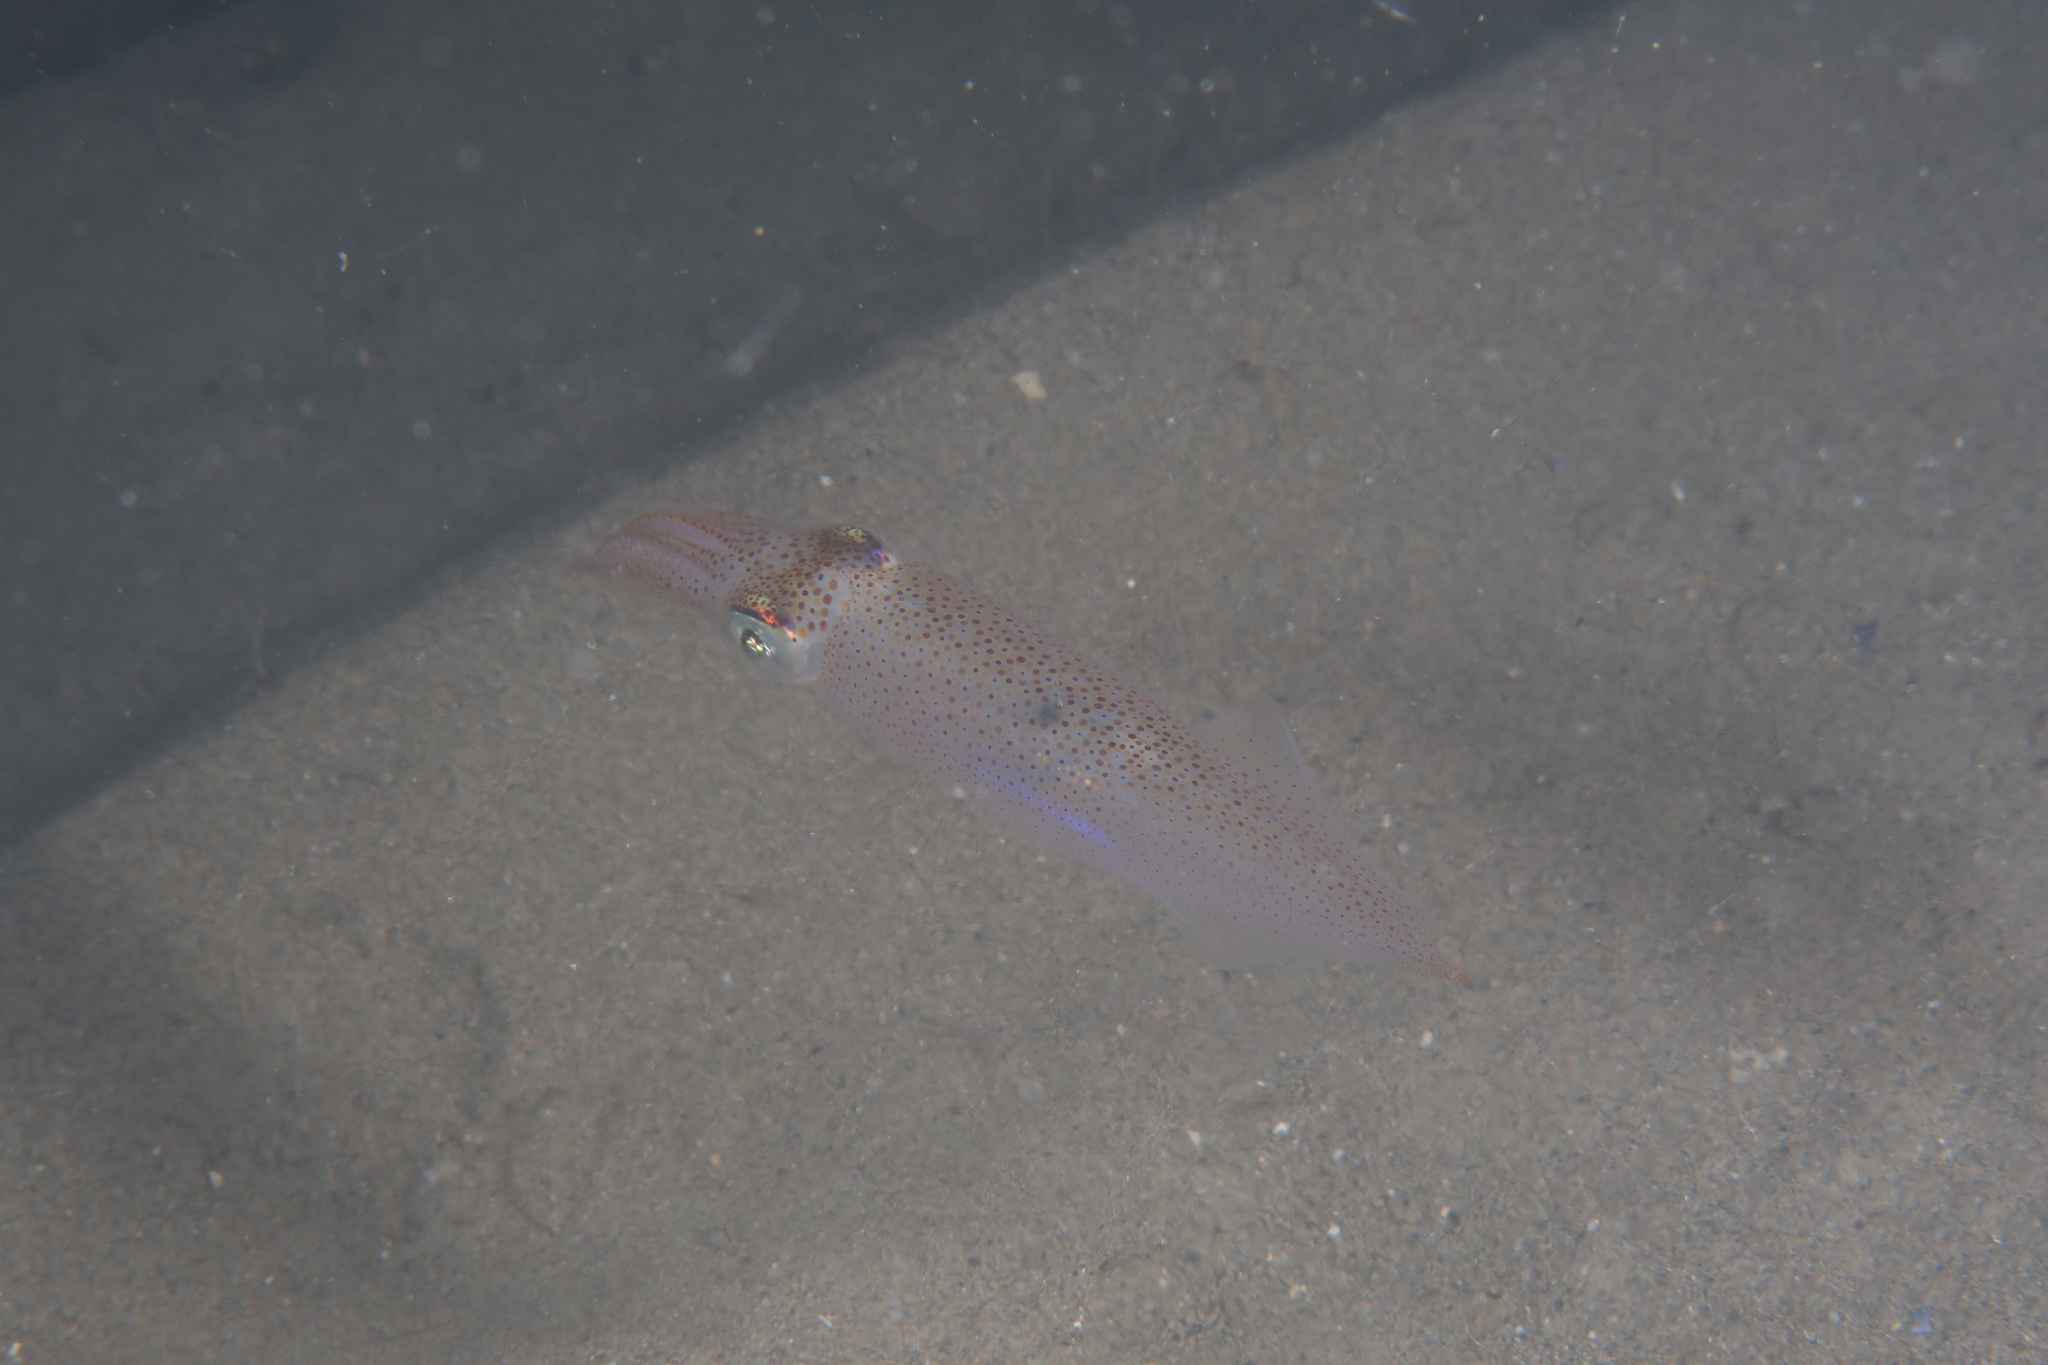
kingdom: Animalia
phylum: Mollusca
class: Cephalopoda
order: Myopsida
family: Loliginidae
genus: Alloteuthis
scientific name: Alloteuthis media
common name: Little squid
